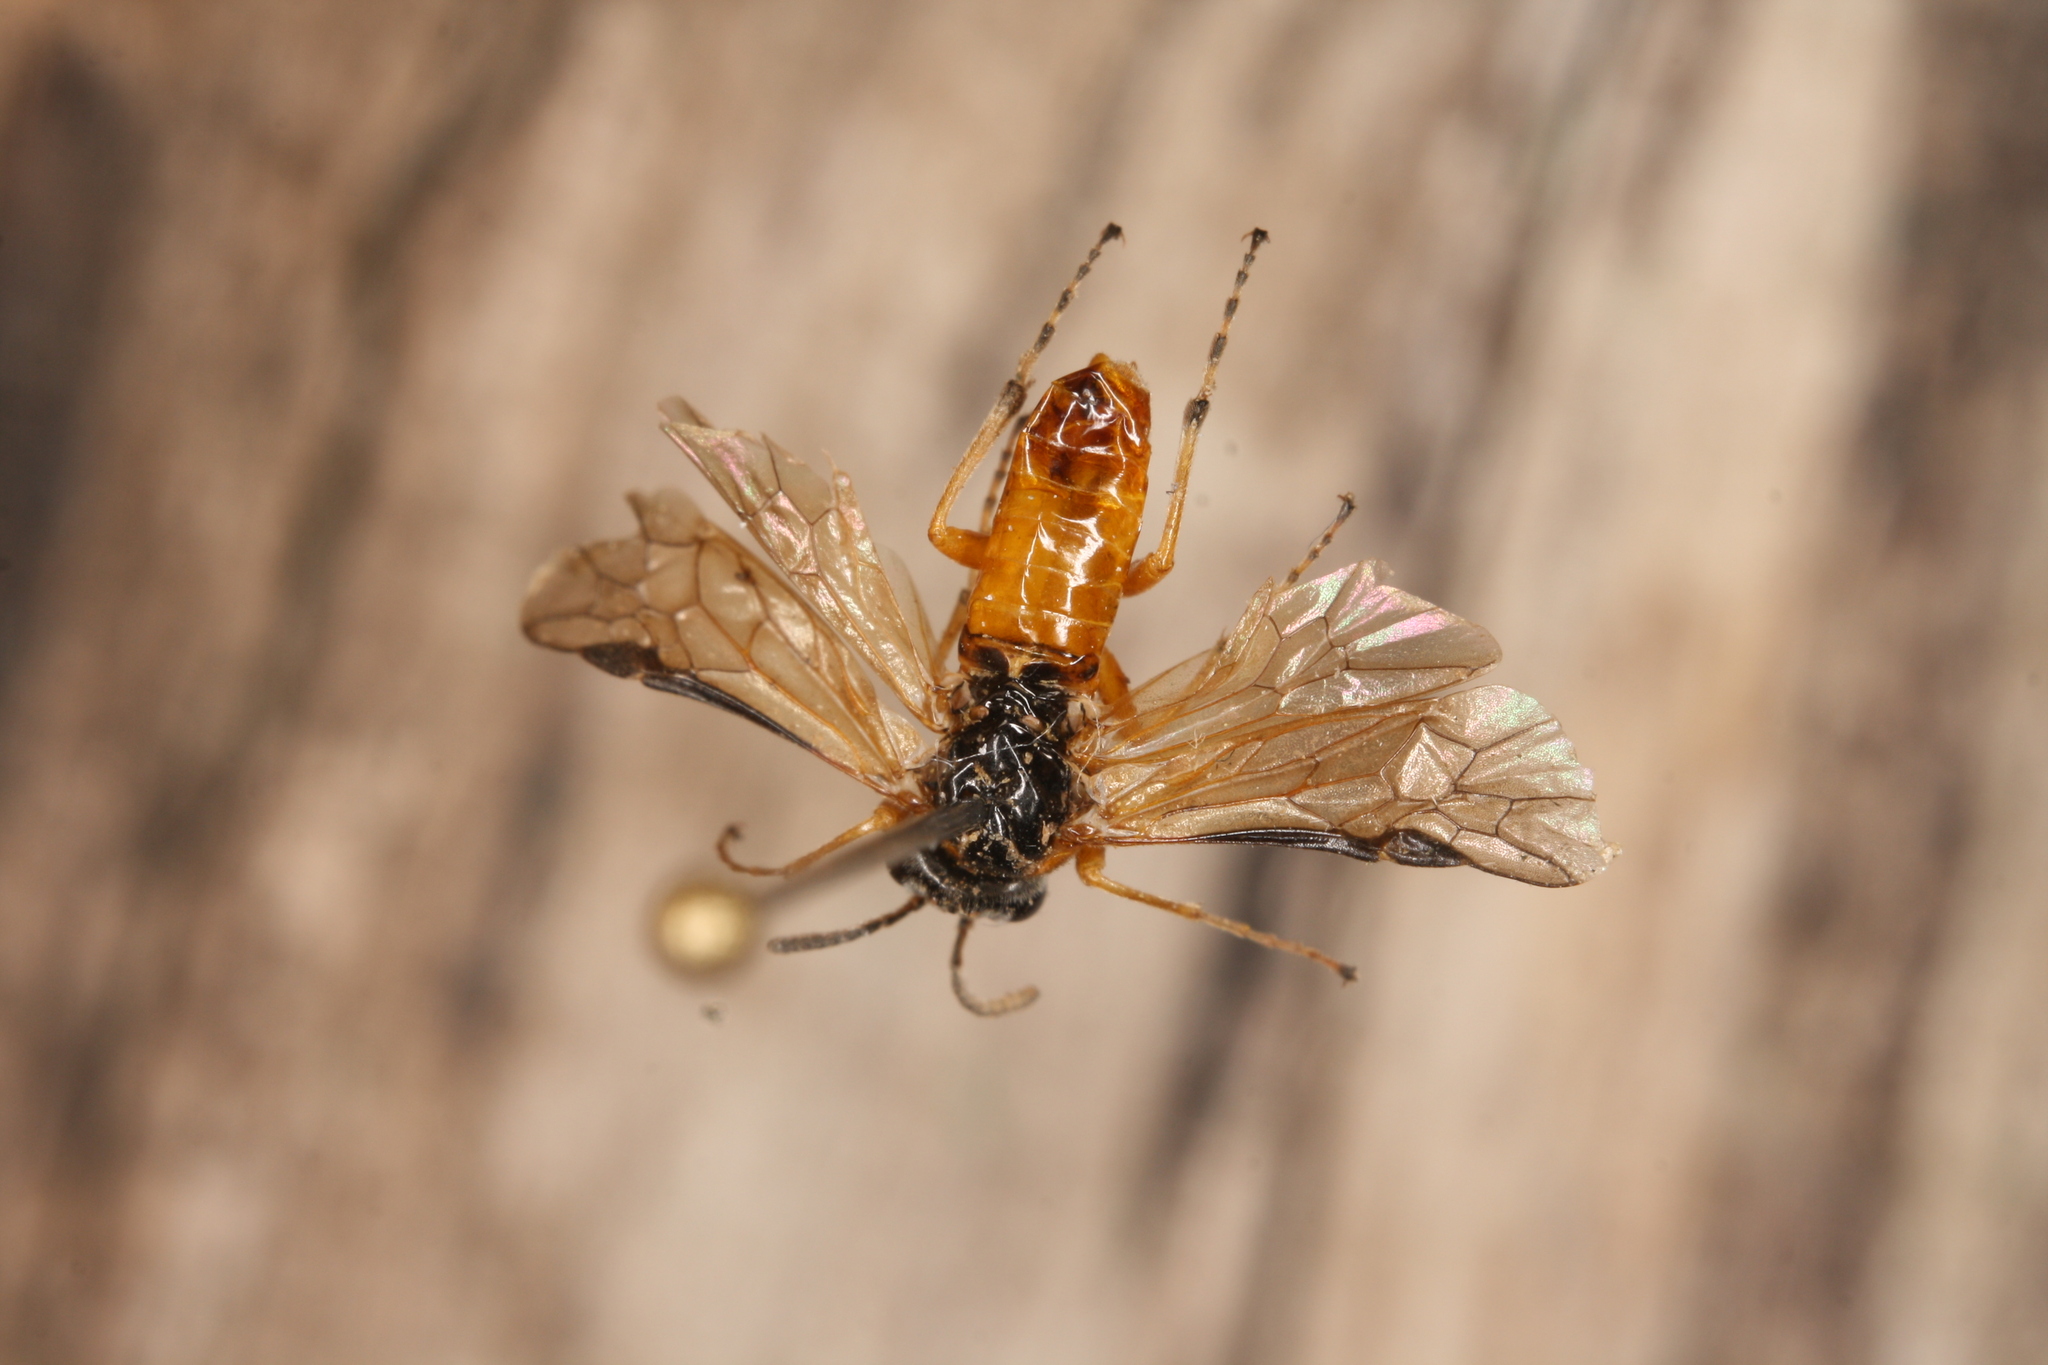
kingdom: Animalia
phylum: Arthropoda
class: Insecta
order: Hymenoptera
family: Tenthredinidae
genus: Athalia
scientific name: Athalia ancilla
